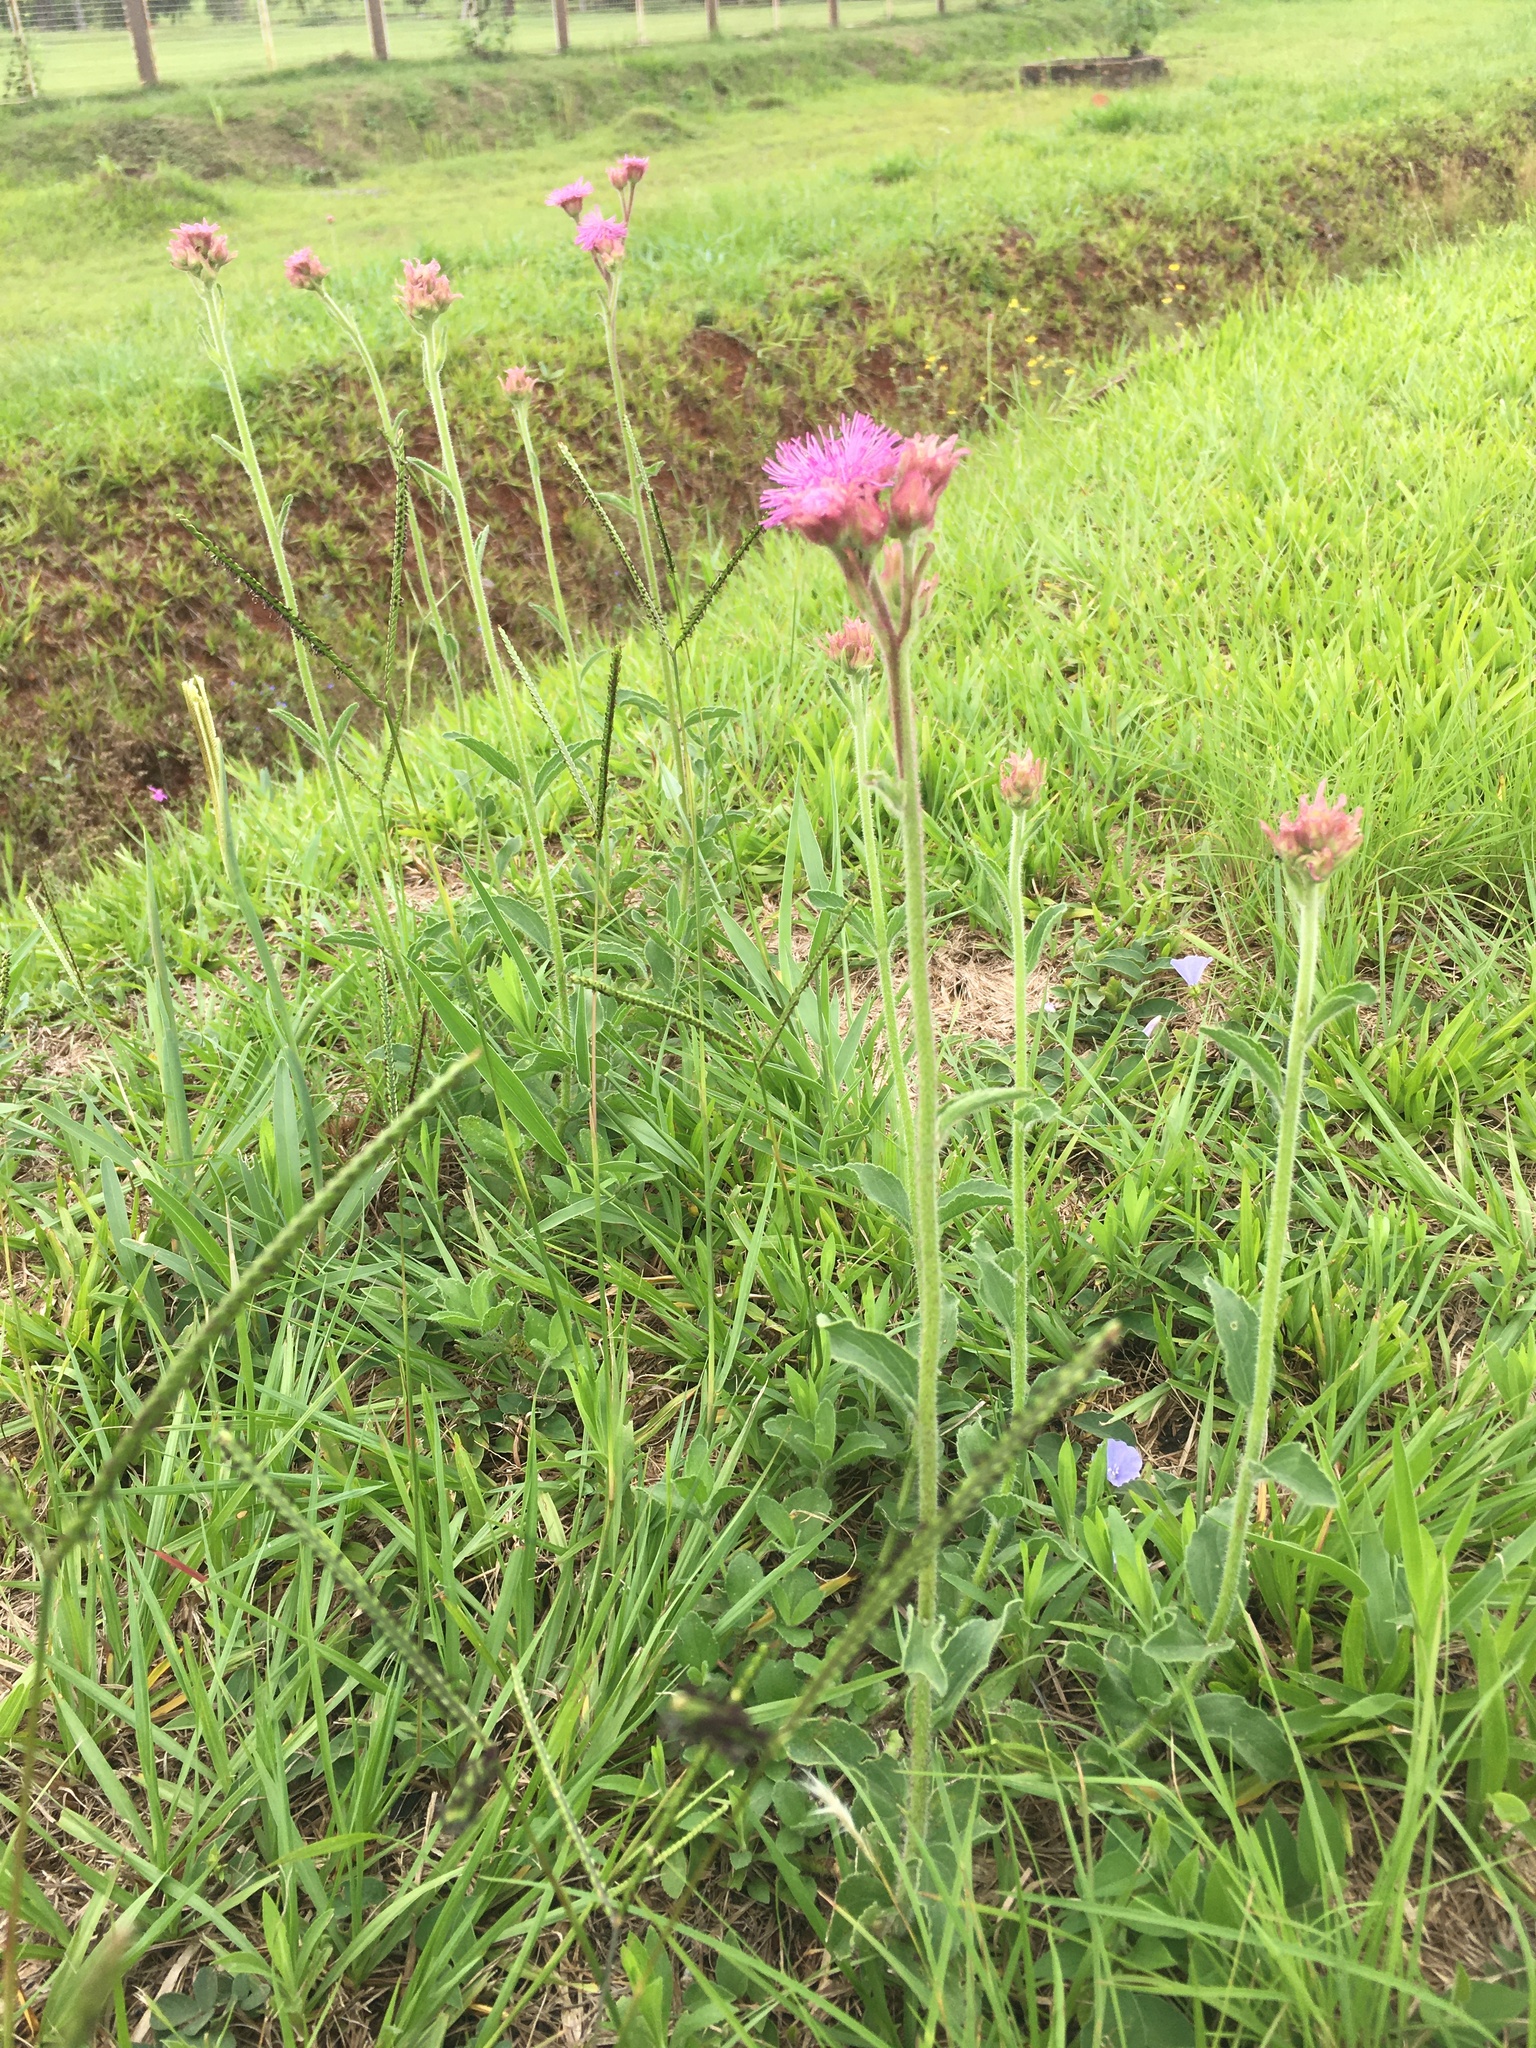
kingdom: Plantae
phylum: Tracheophyta
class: Magnoliopsida
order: Asterales
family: Asteraceae
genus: Campuloclinium
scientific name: Campuloclinium macrocephalum
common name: Pompomweed
